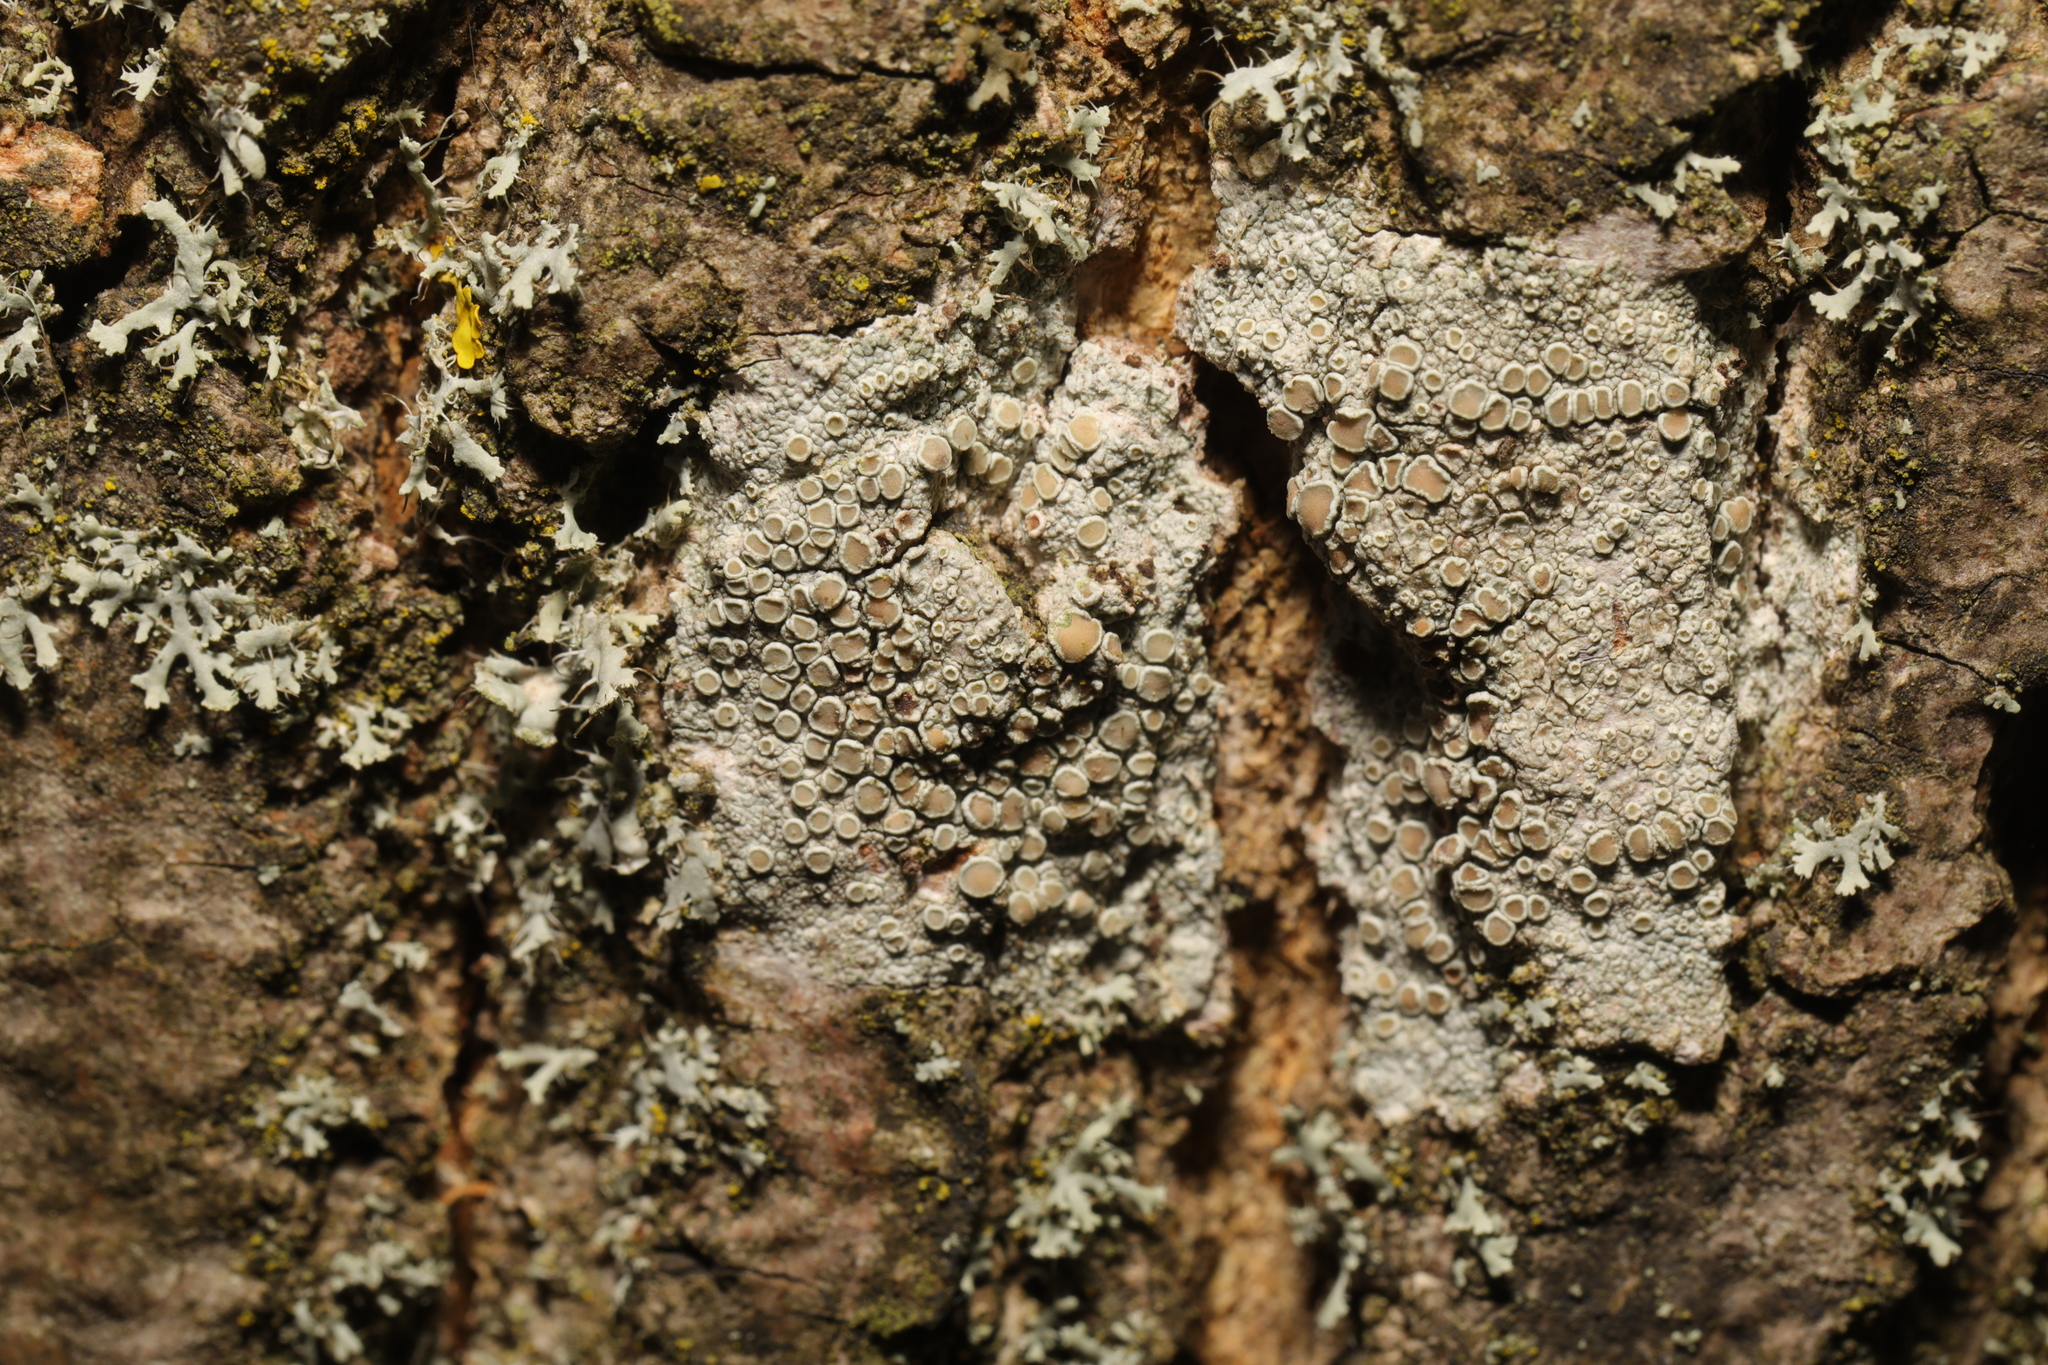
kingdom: Fungi
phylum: Ascomycota
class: Lecanoromycetes
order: Lecanorales
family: Lecanoraceae
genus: Lecanora
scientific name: Lecanora chlarotera
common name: Brown rim-lichen
